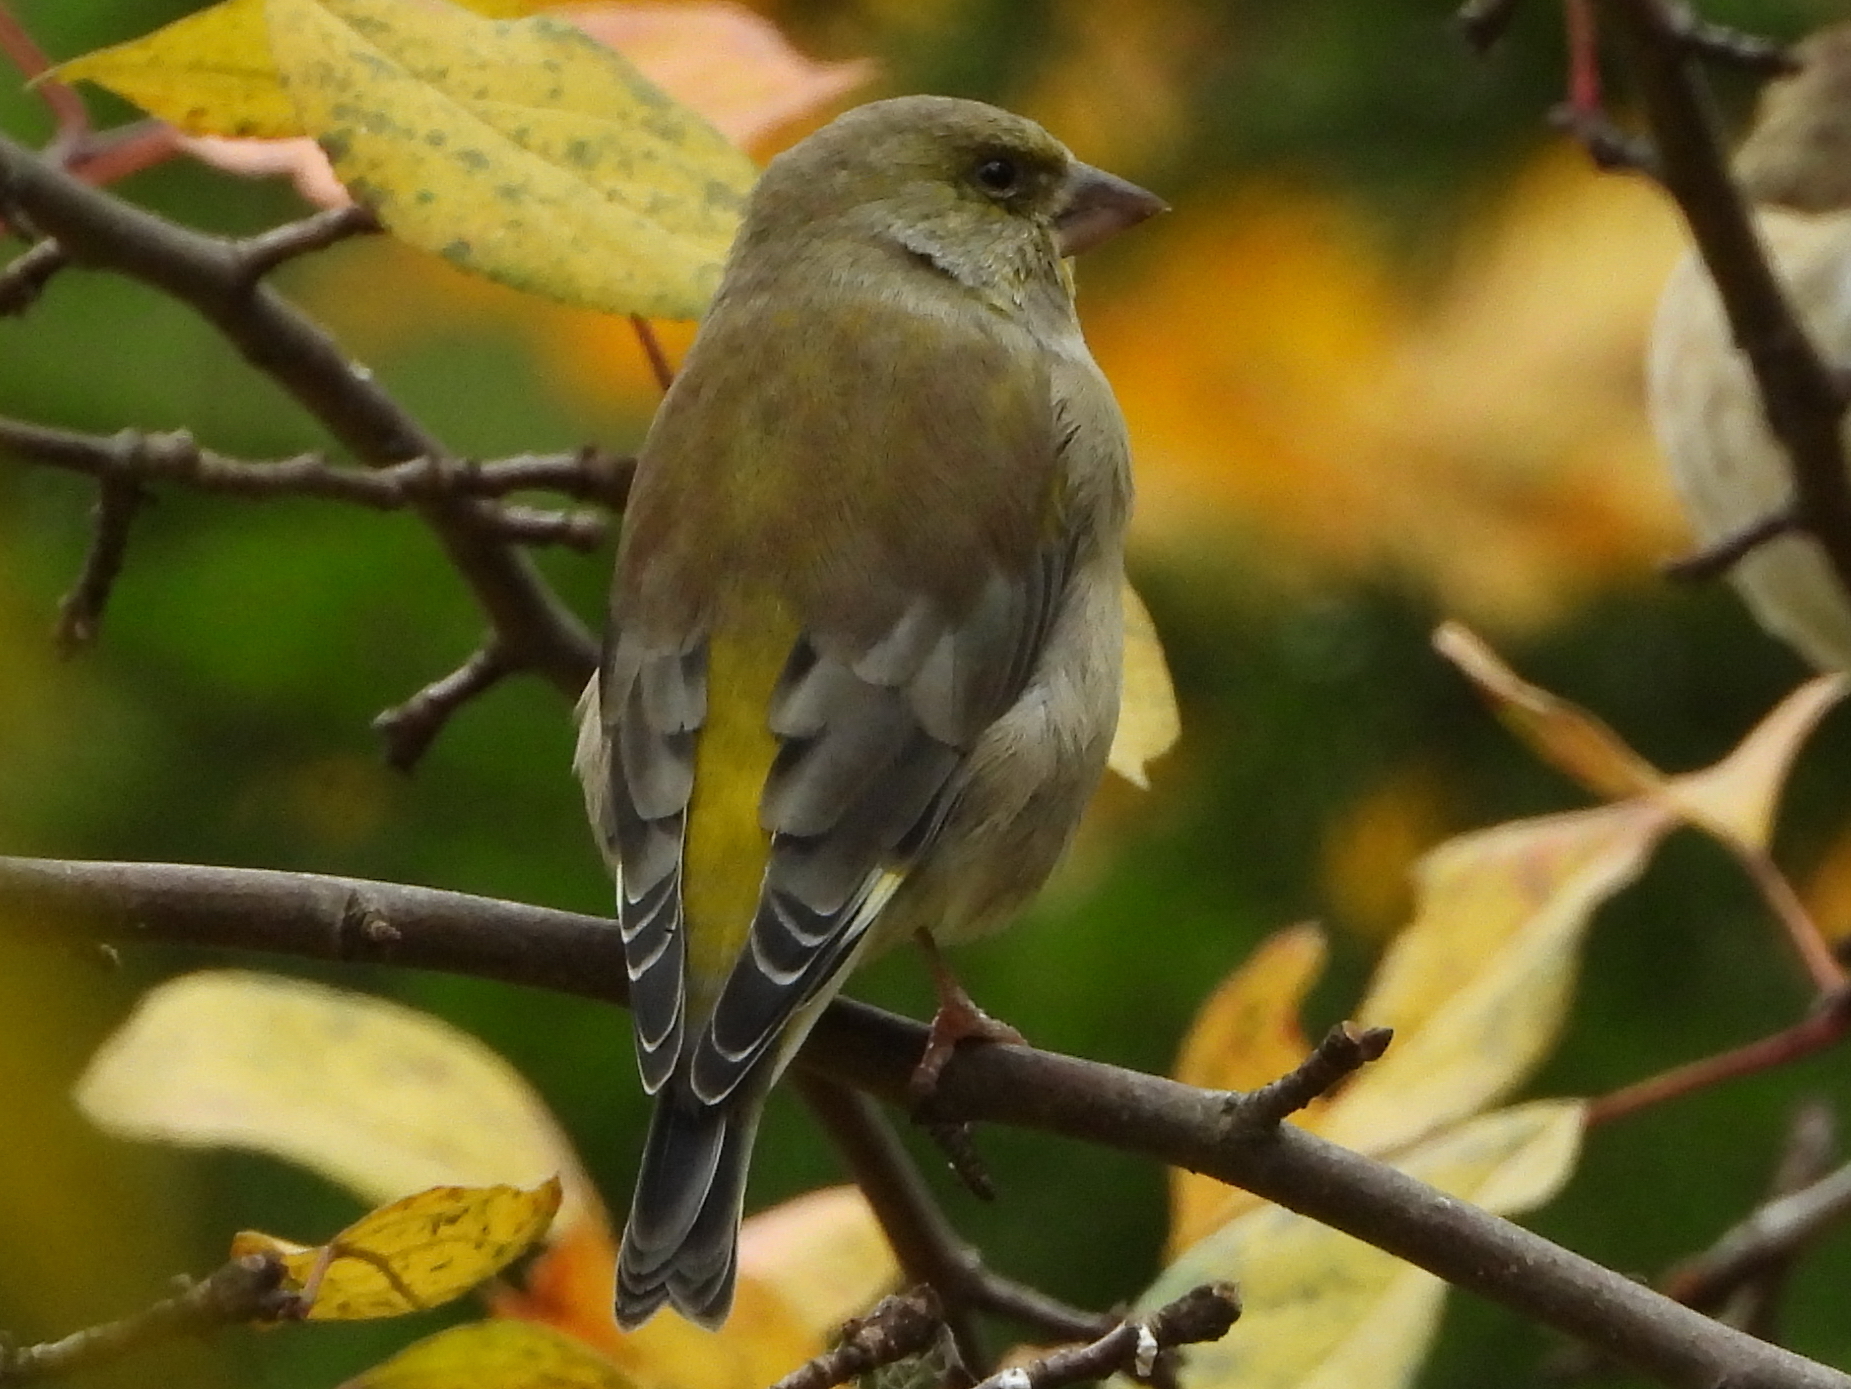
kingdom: Plantae
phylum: Tracheophyta
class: Liliopsida
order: Poales
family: Poaceae
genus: Chloris
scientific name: Chloris chloris
